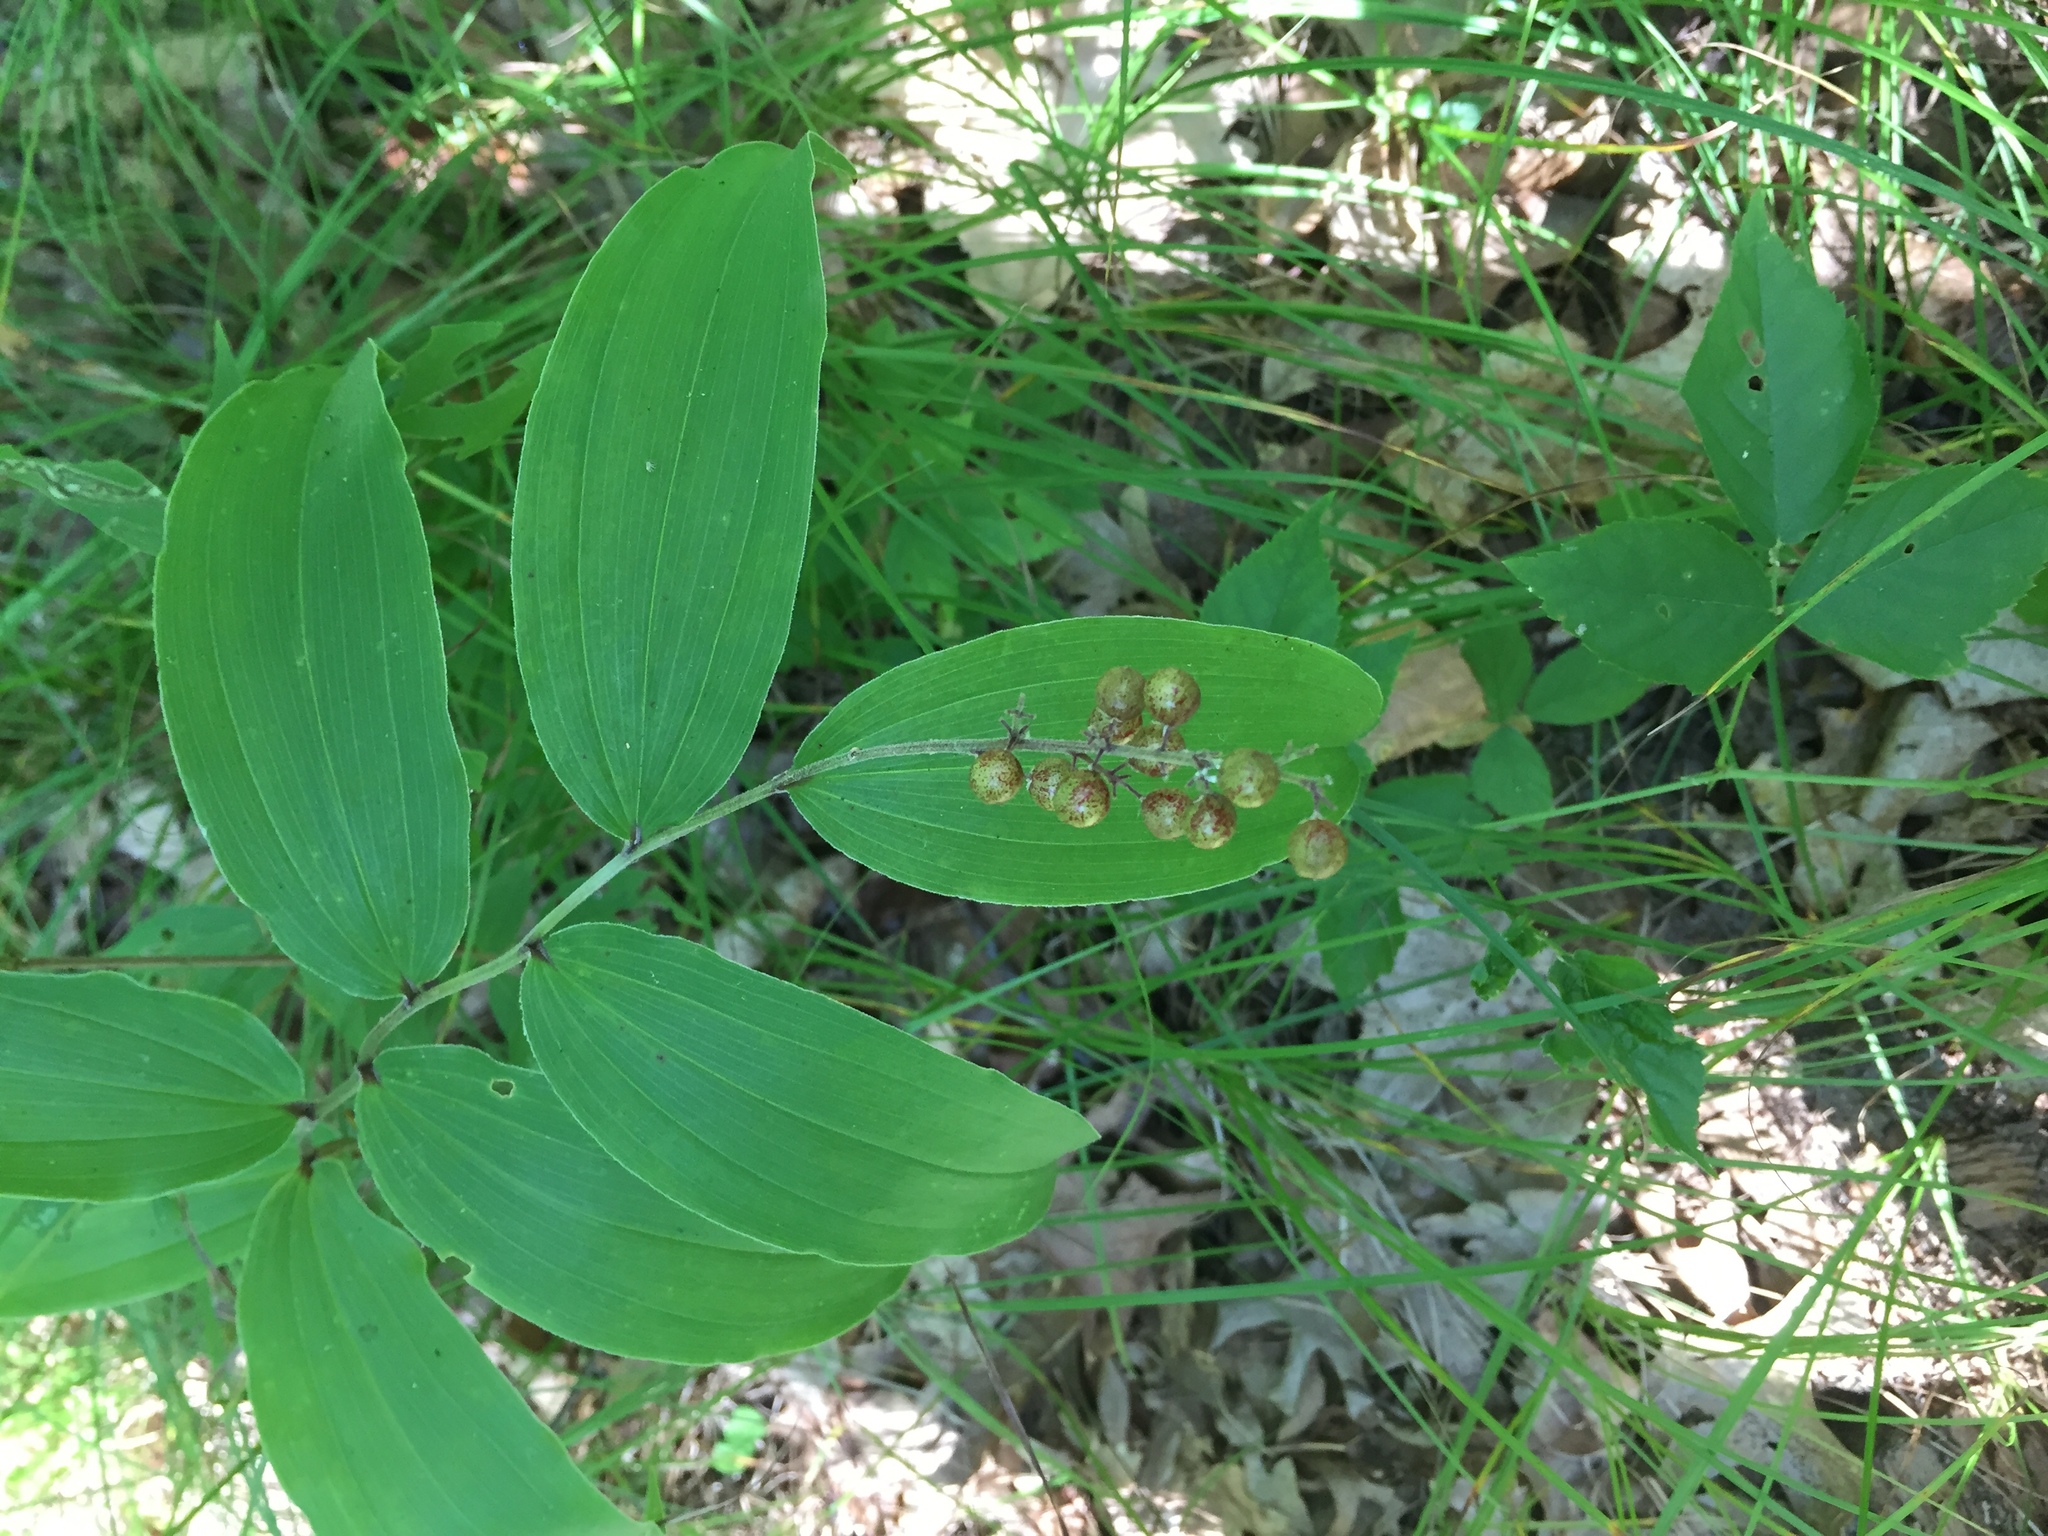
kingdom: Plantae
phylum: Tracheophyta
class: Liliopsida
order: Asparagales
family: Asparagaceae
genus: Maianthemum
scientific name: Maianthemum racemosum
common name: False spikenard
